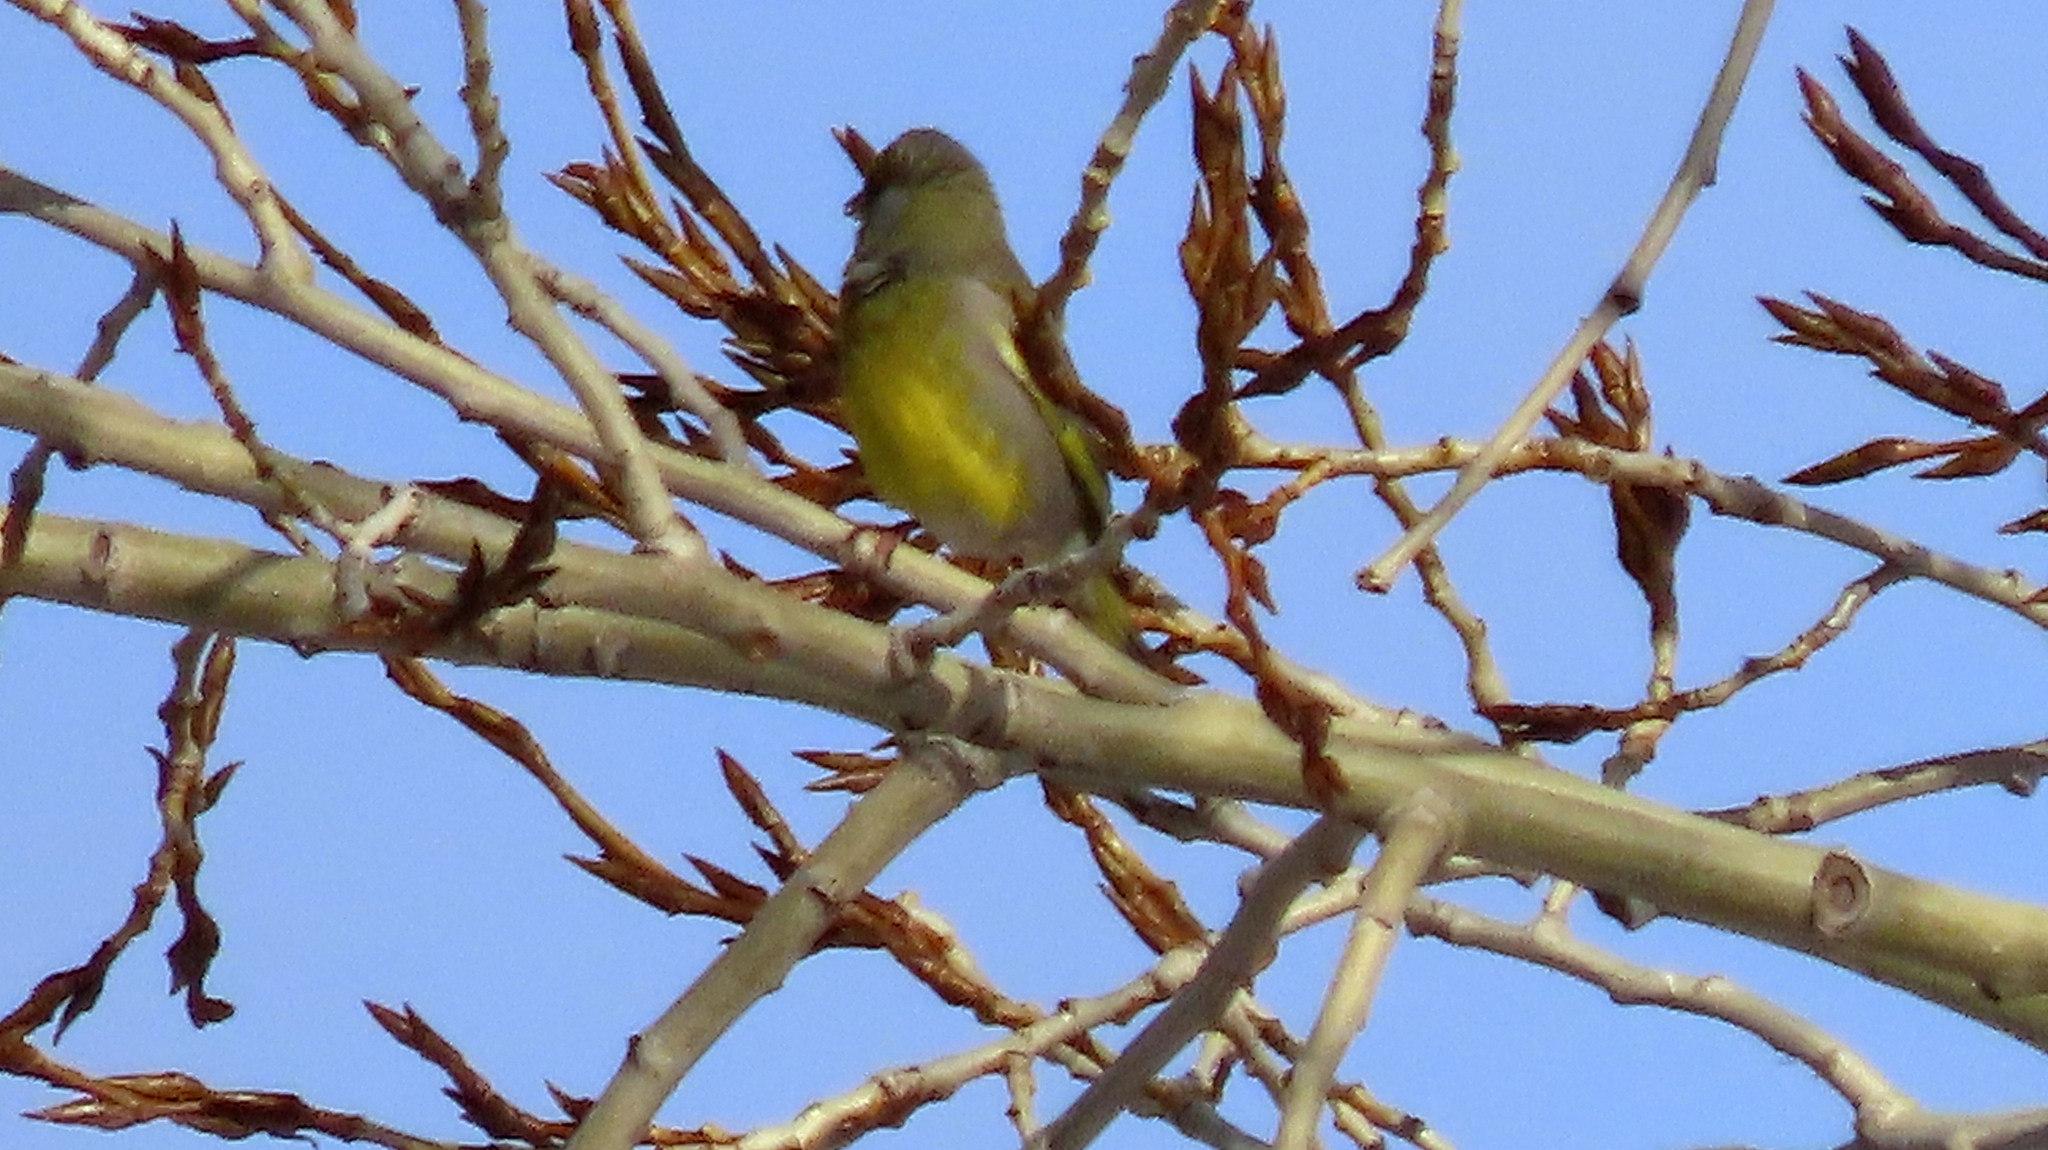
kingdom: Plantae
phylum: Tracheophyta
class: Liliopsida
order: Poales
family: Poaceae
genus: Chloris
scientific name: Chloris chloris
